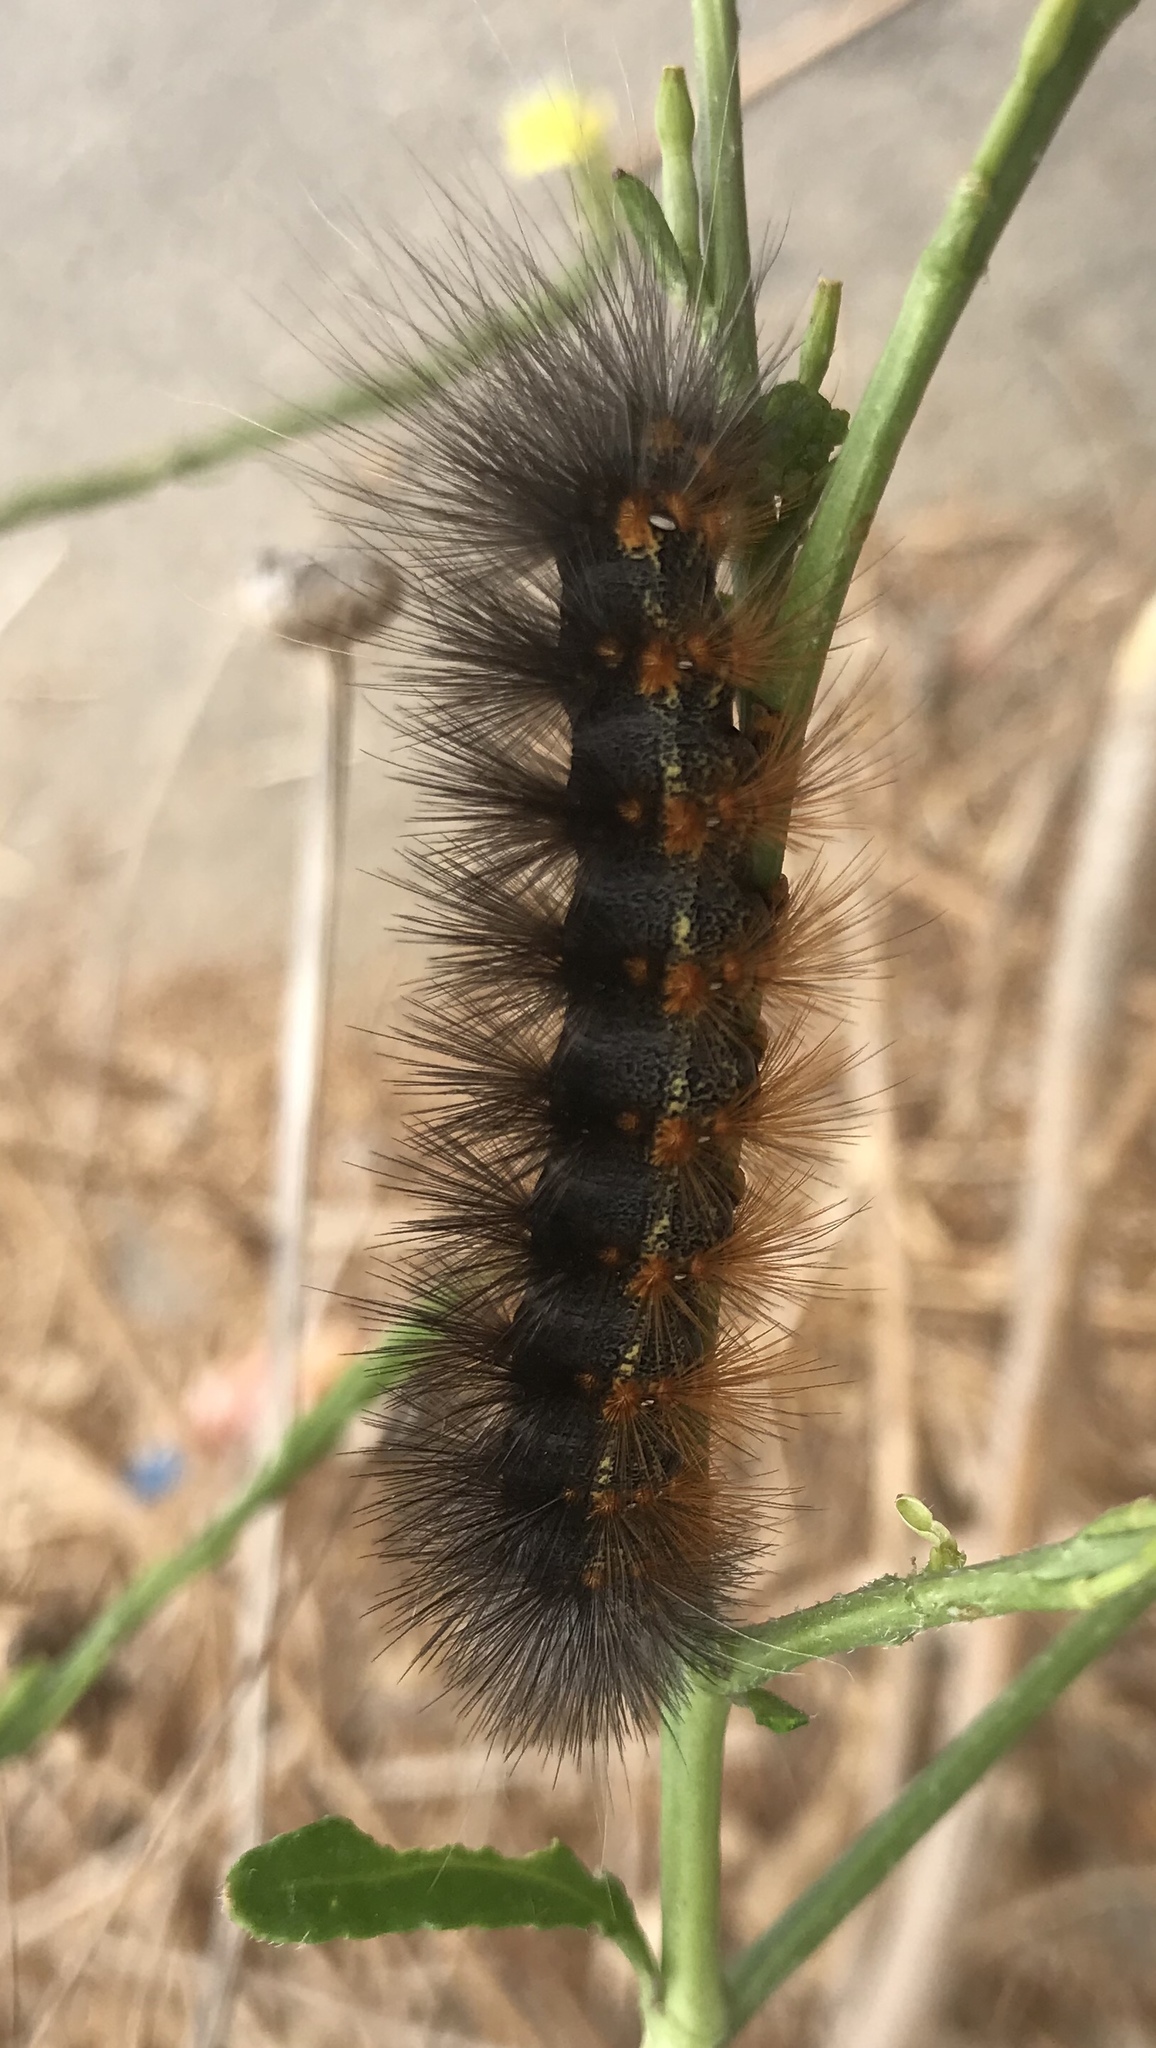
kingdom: Animalia
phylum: Arthropoda
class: Insecta
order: Lepidoptera
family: Erebidae
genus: Estigmene
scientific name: Estigmene acrea
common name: Salt marsh moth
